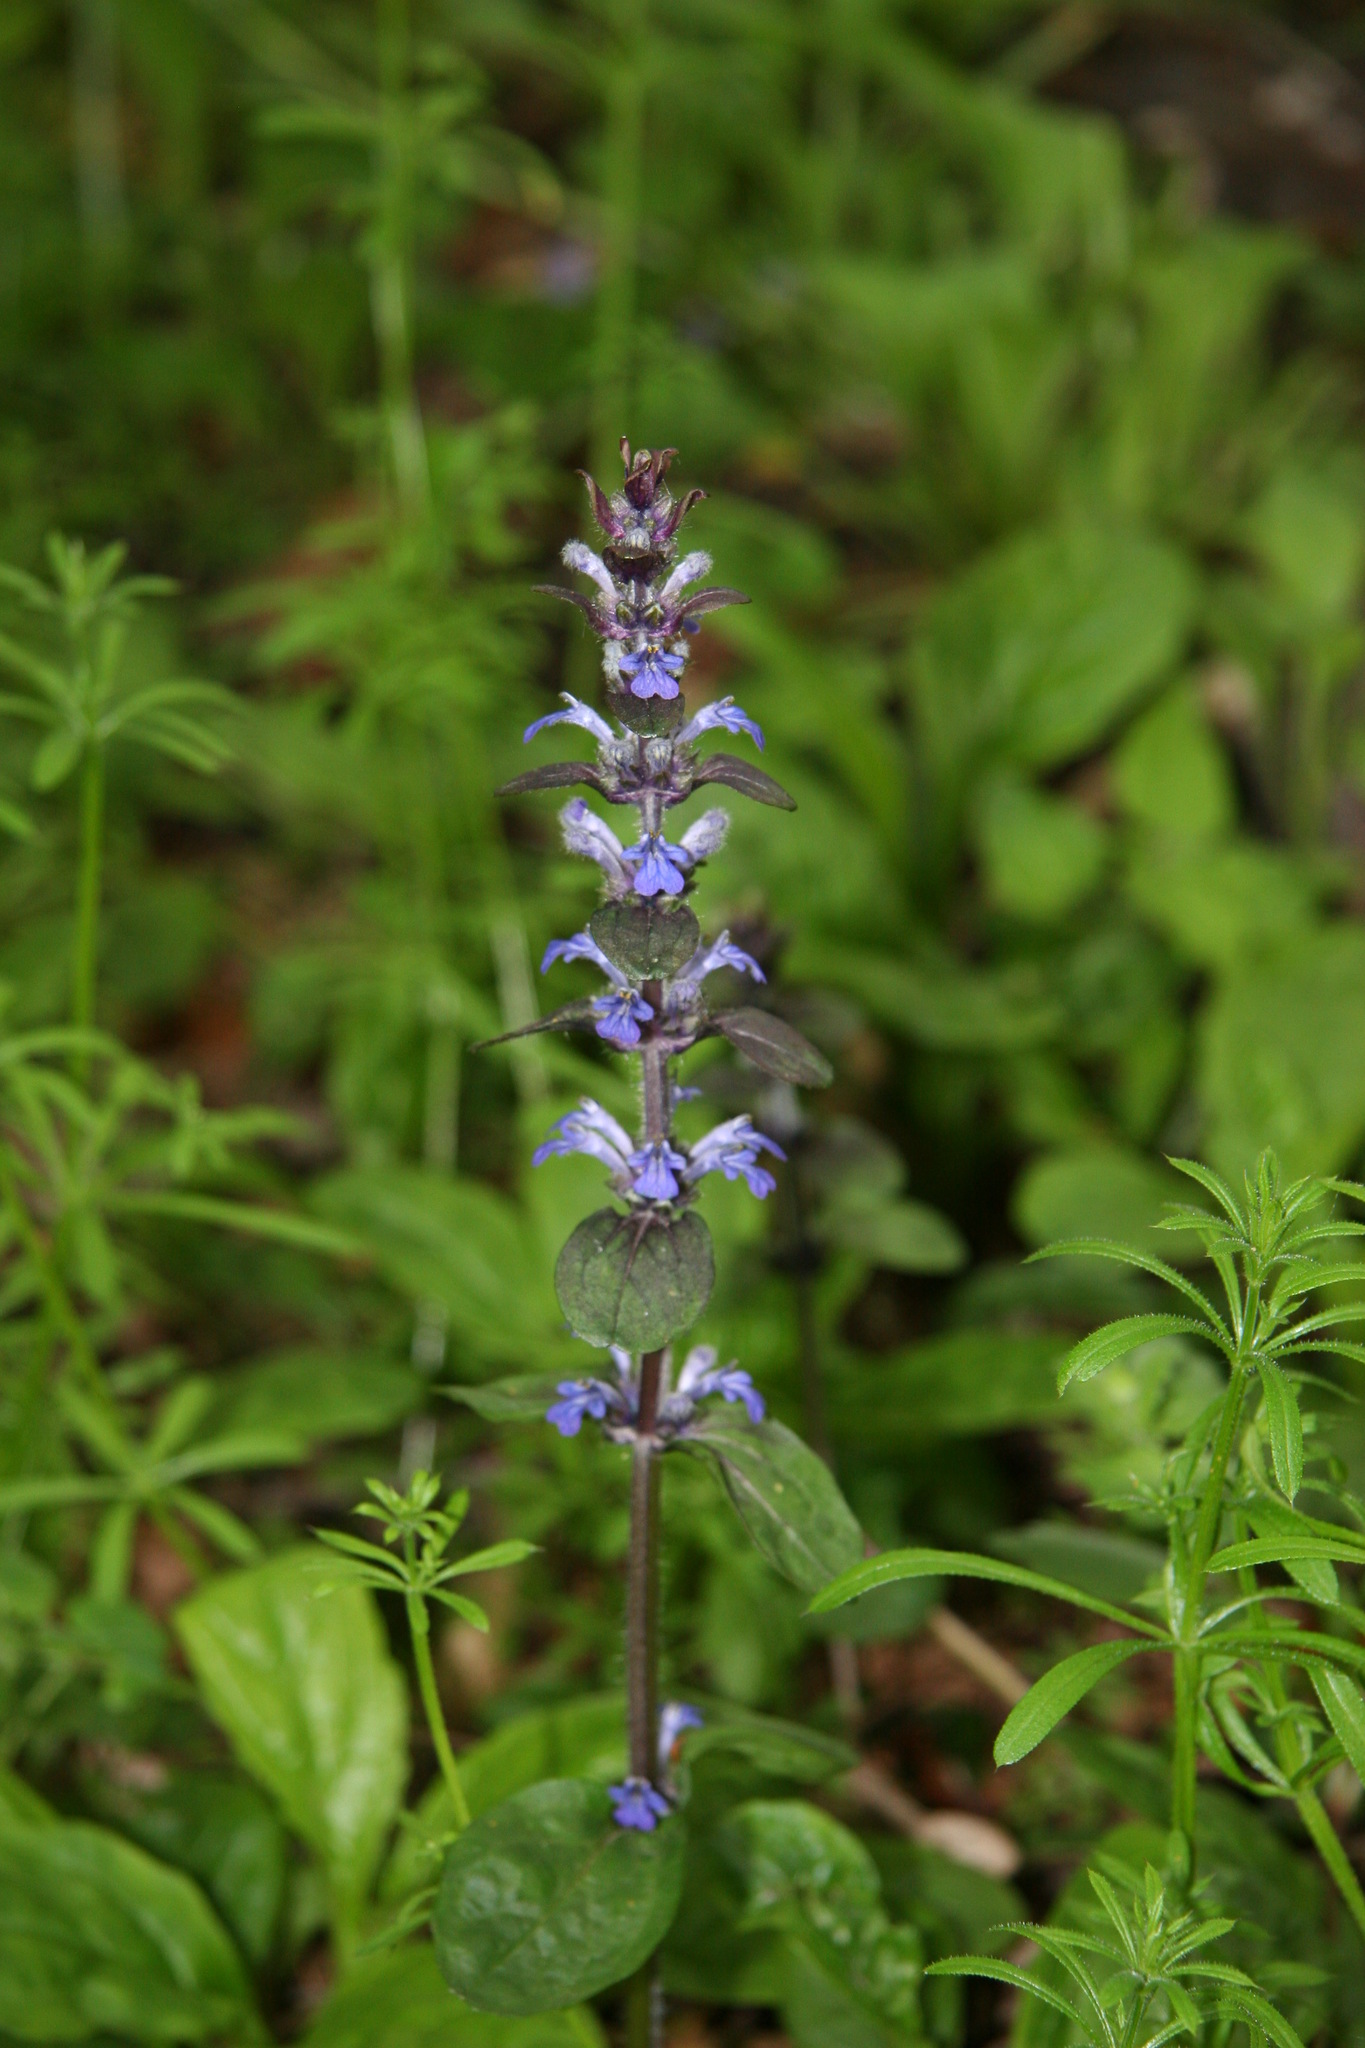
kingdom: Plantae
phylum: Tracheophyta
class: Magnoliopsida
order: Lamiales
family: Lamiaceae
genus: Ajuga
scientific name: Ajuga reptans
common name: Bugle
